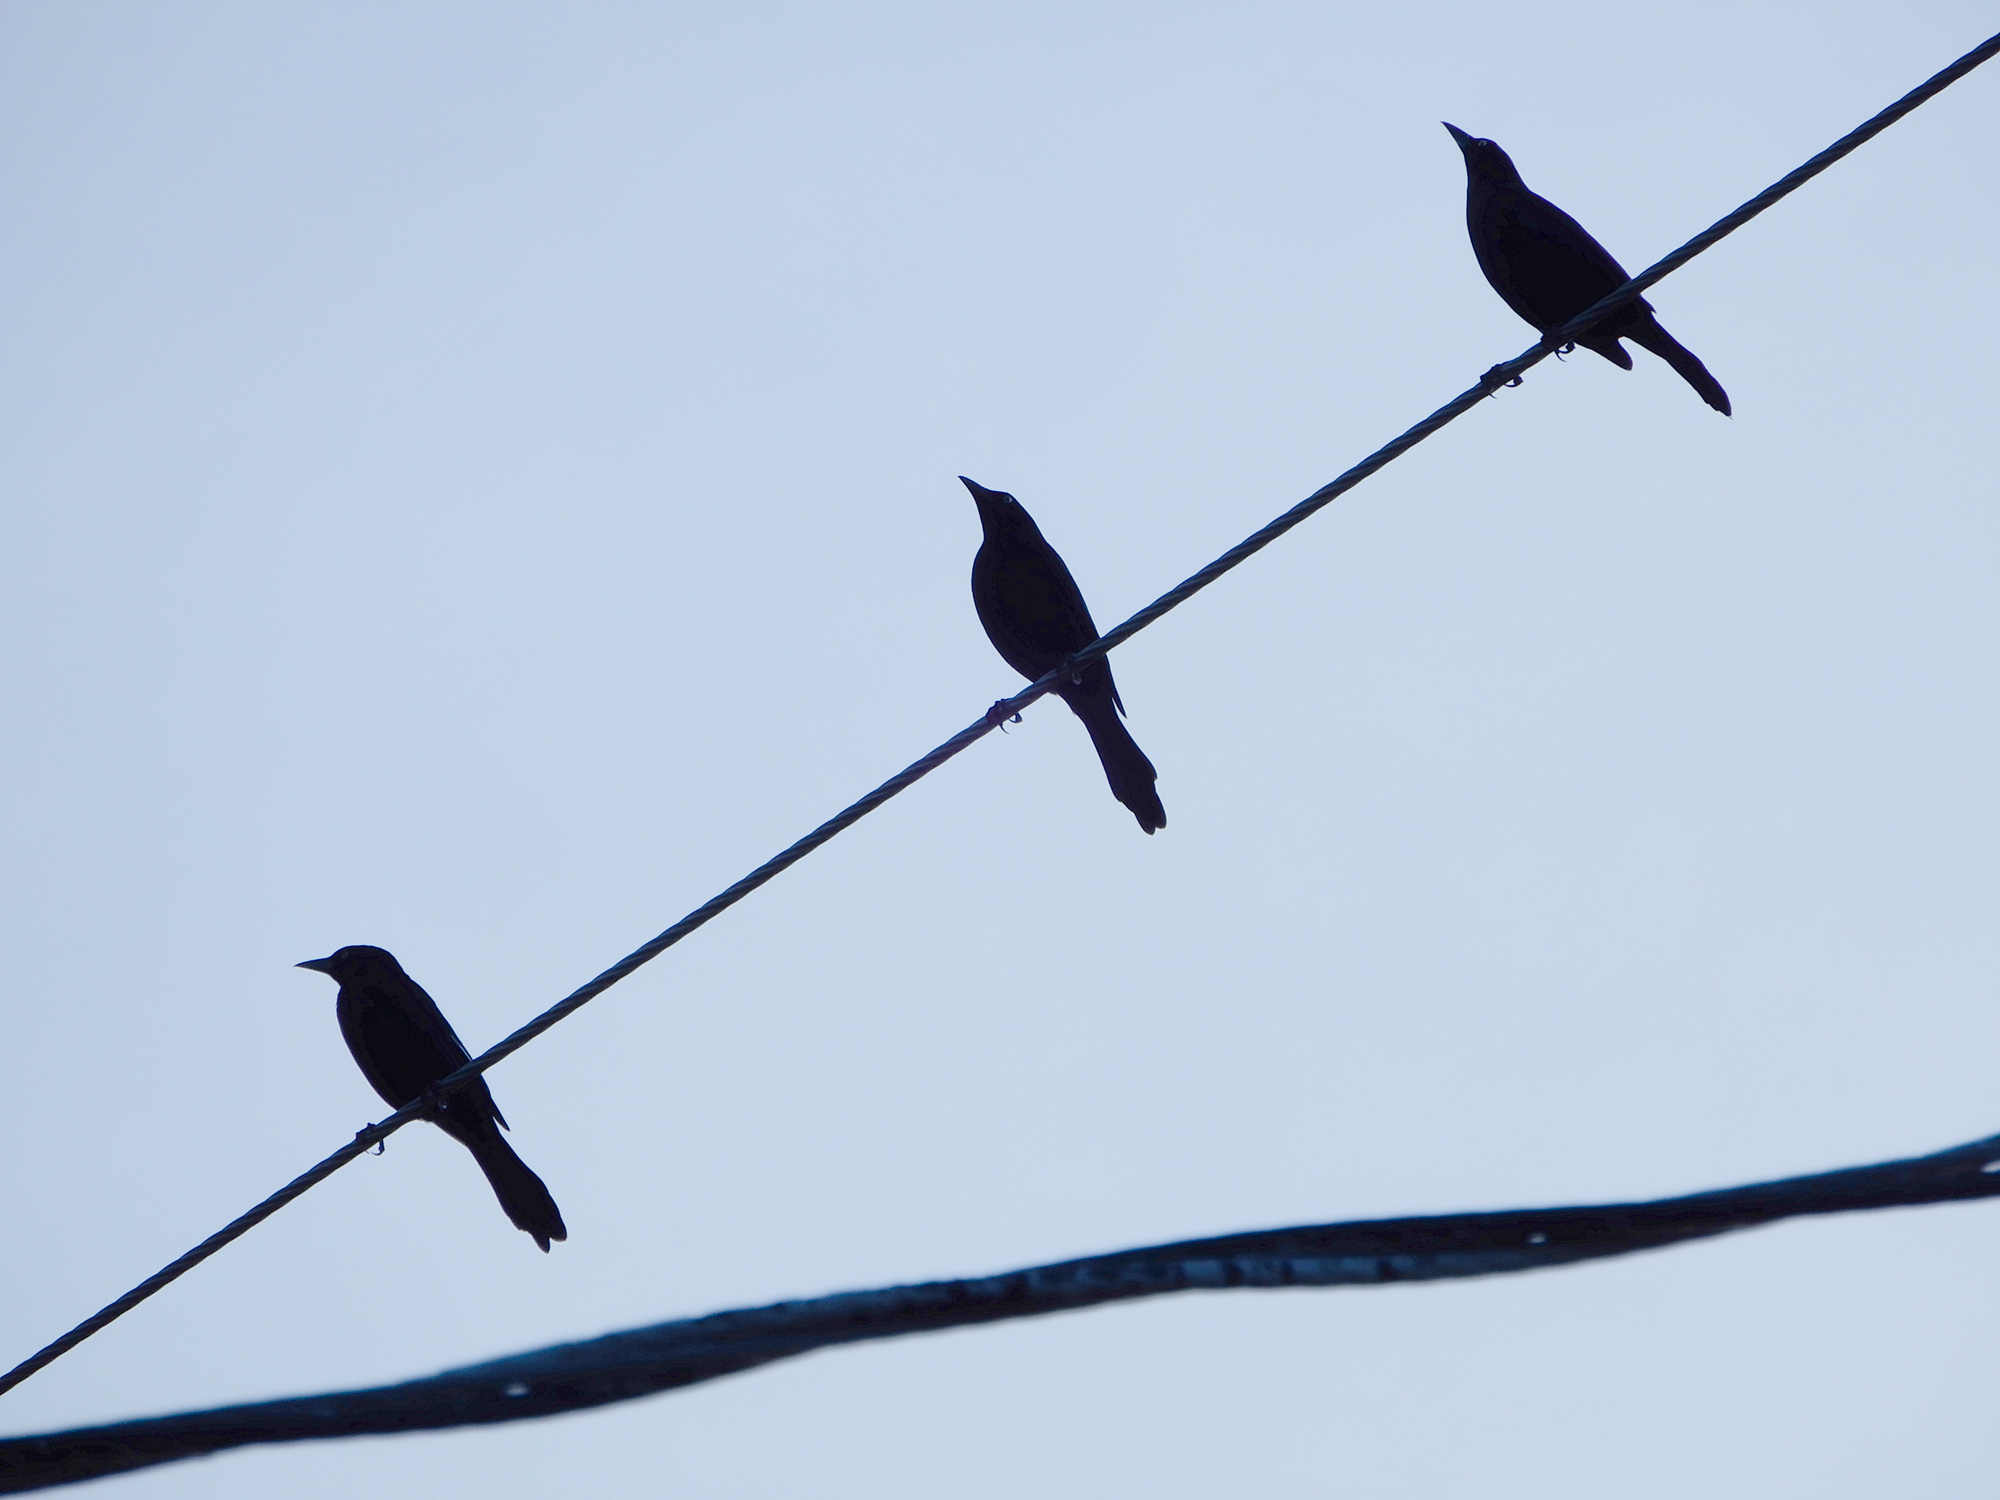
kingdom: Animalia
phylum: Chordata
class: Aves
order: Passeriformes
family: Icteridae
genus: Quiscalus
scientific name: Quiscalus quiscula
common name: Common grackle
